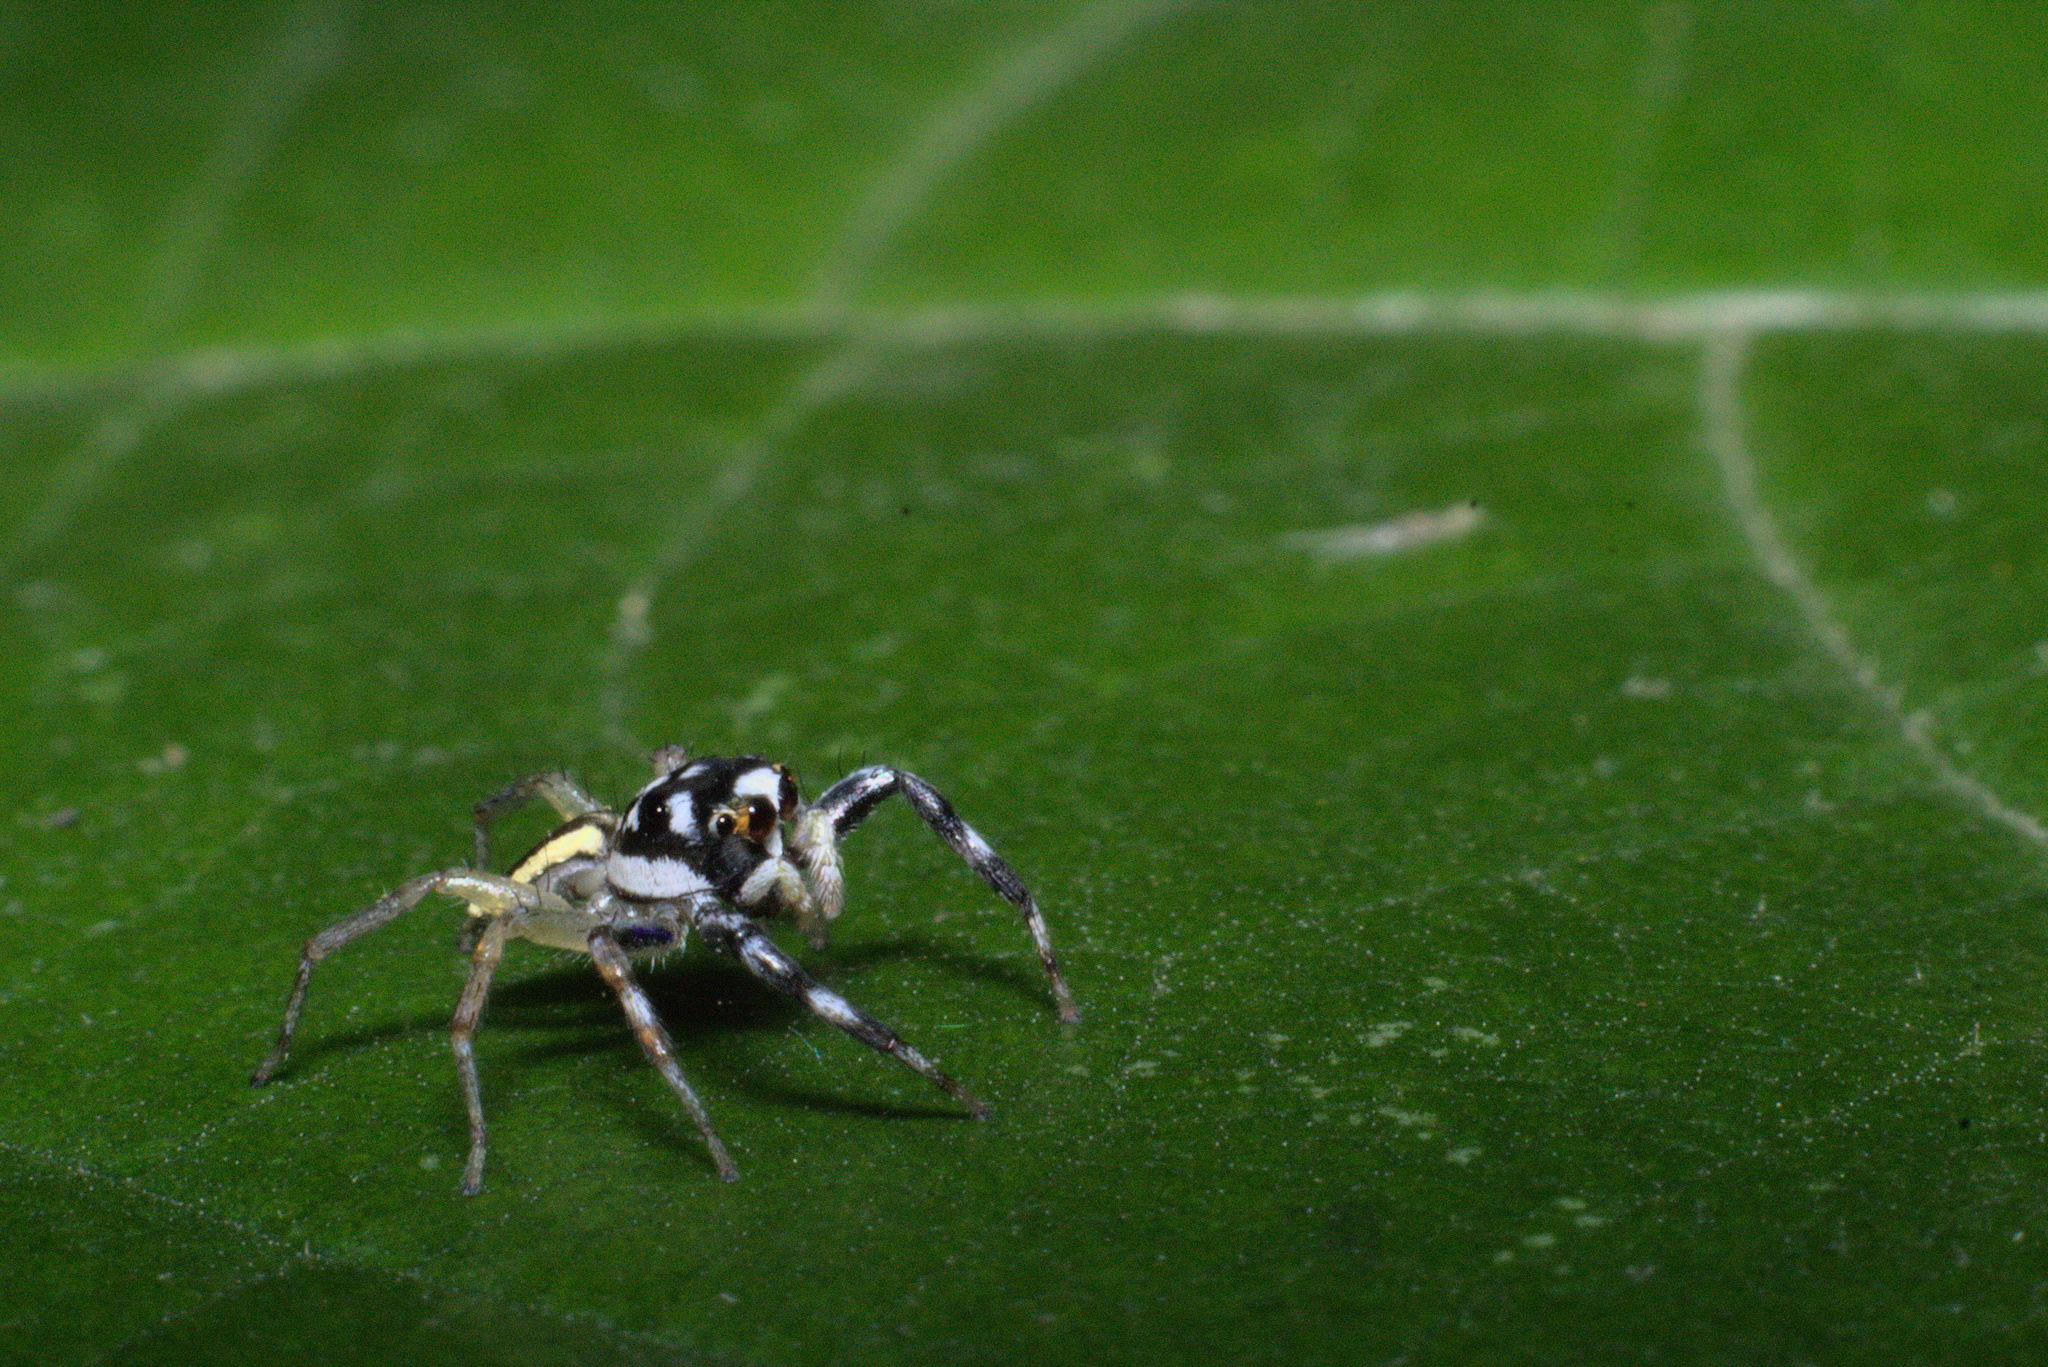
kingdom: Animalia
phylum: Arthropoda
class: Arachnida
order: Araneae
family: Salticidae
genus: Phintelloides
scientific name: Phintelloides versicolor
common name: Jumping spider
